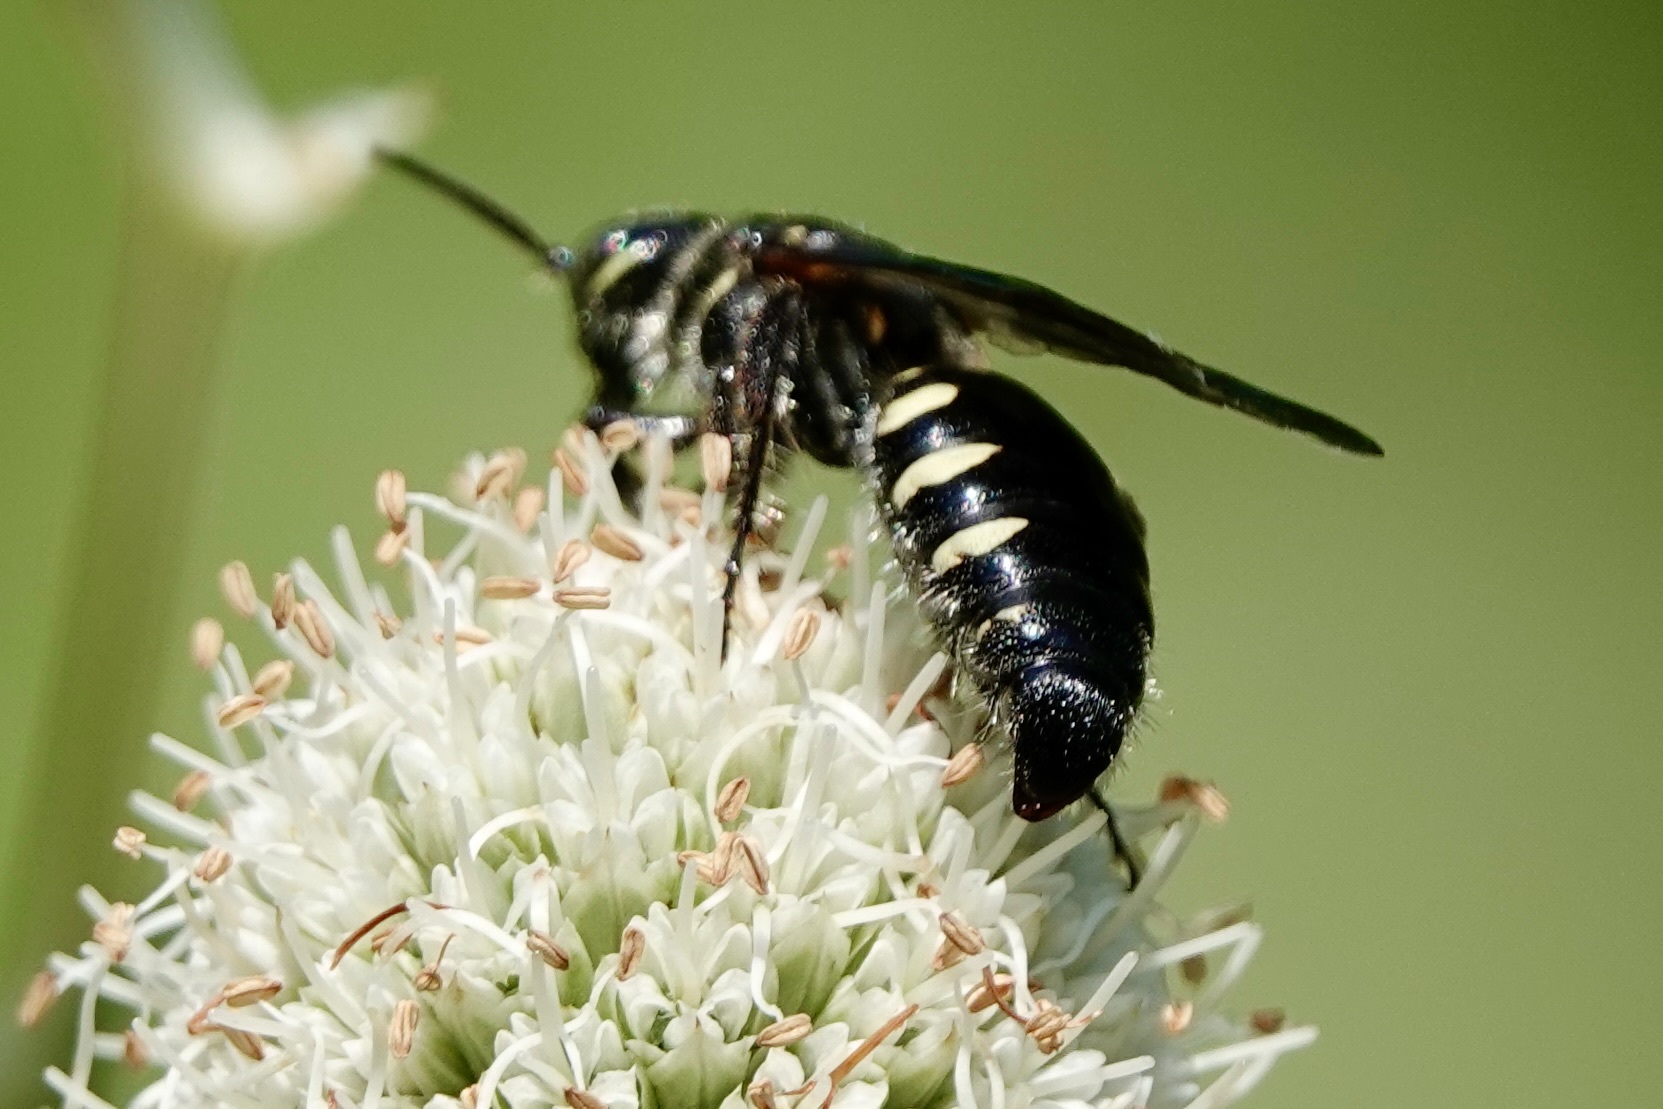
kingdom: Animalia
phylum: Arthropoda
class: Insecta
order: Hymenoptera
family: Tiphiidae
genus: Myzinum
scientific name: Myzinum obscurum
